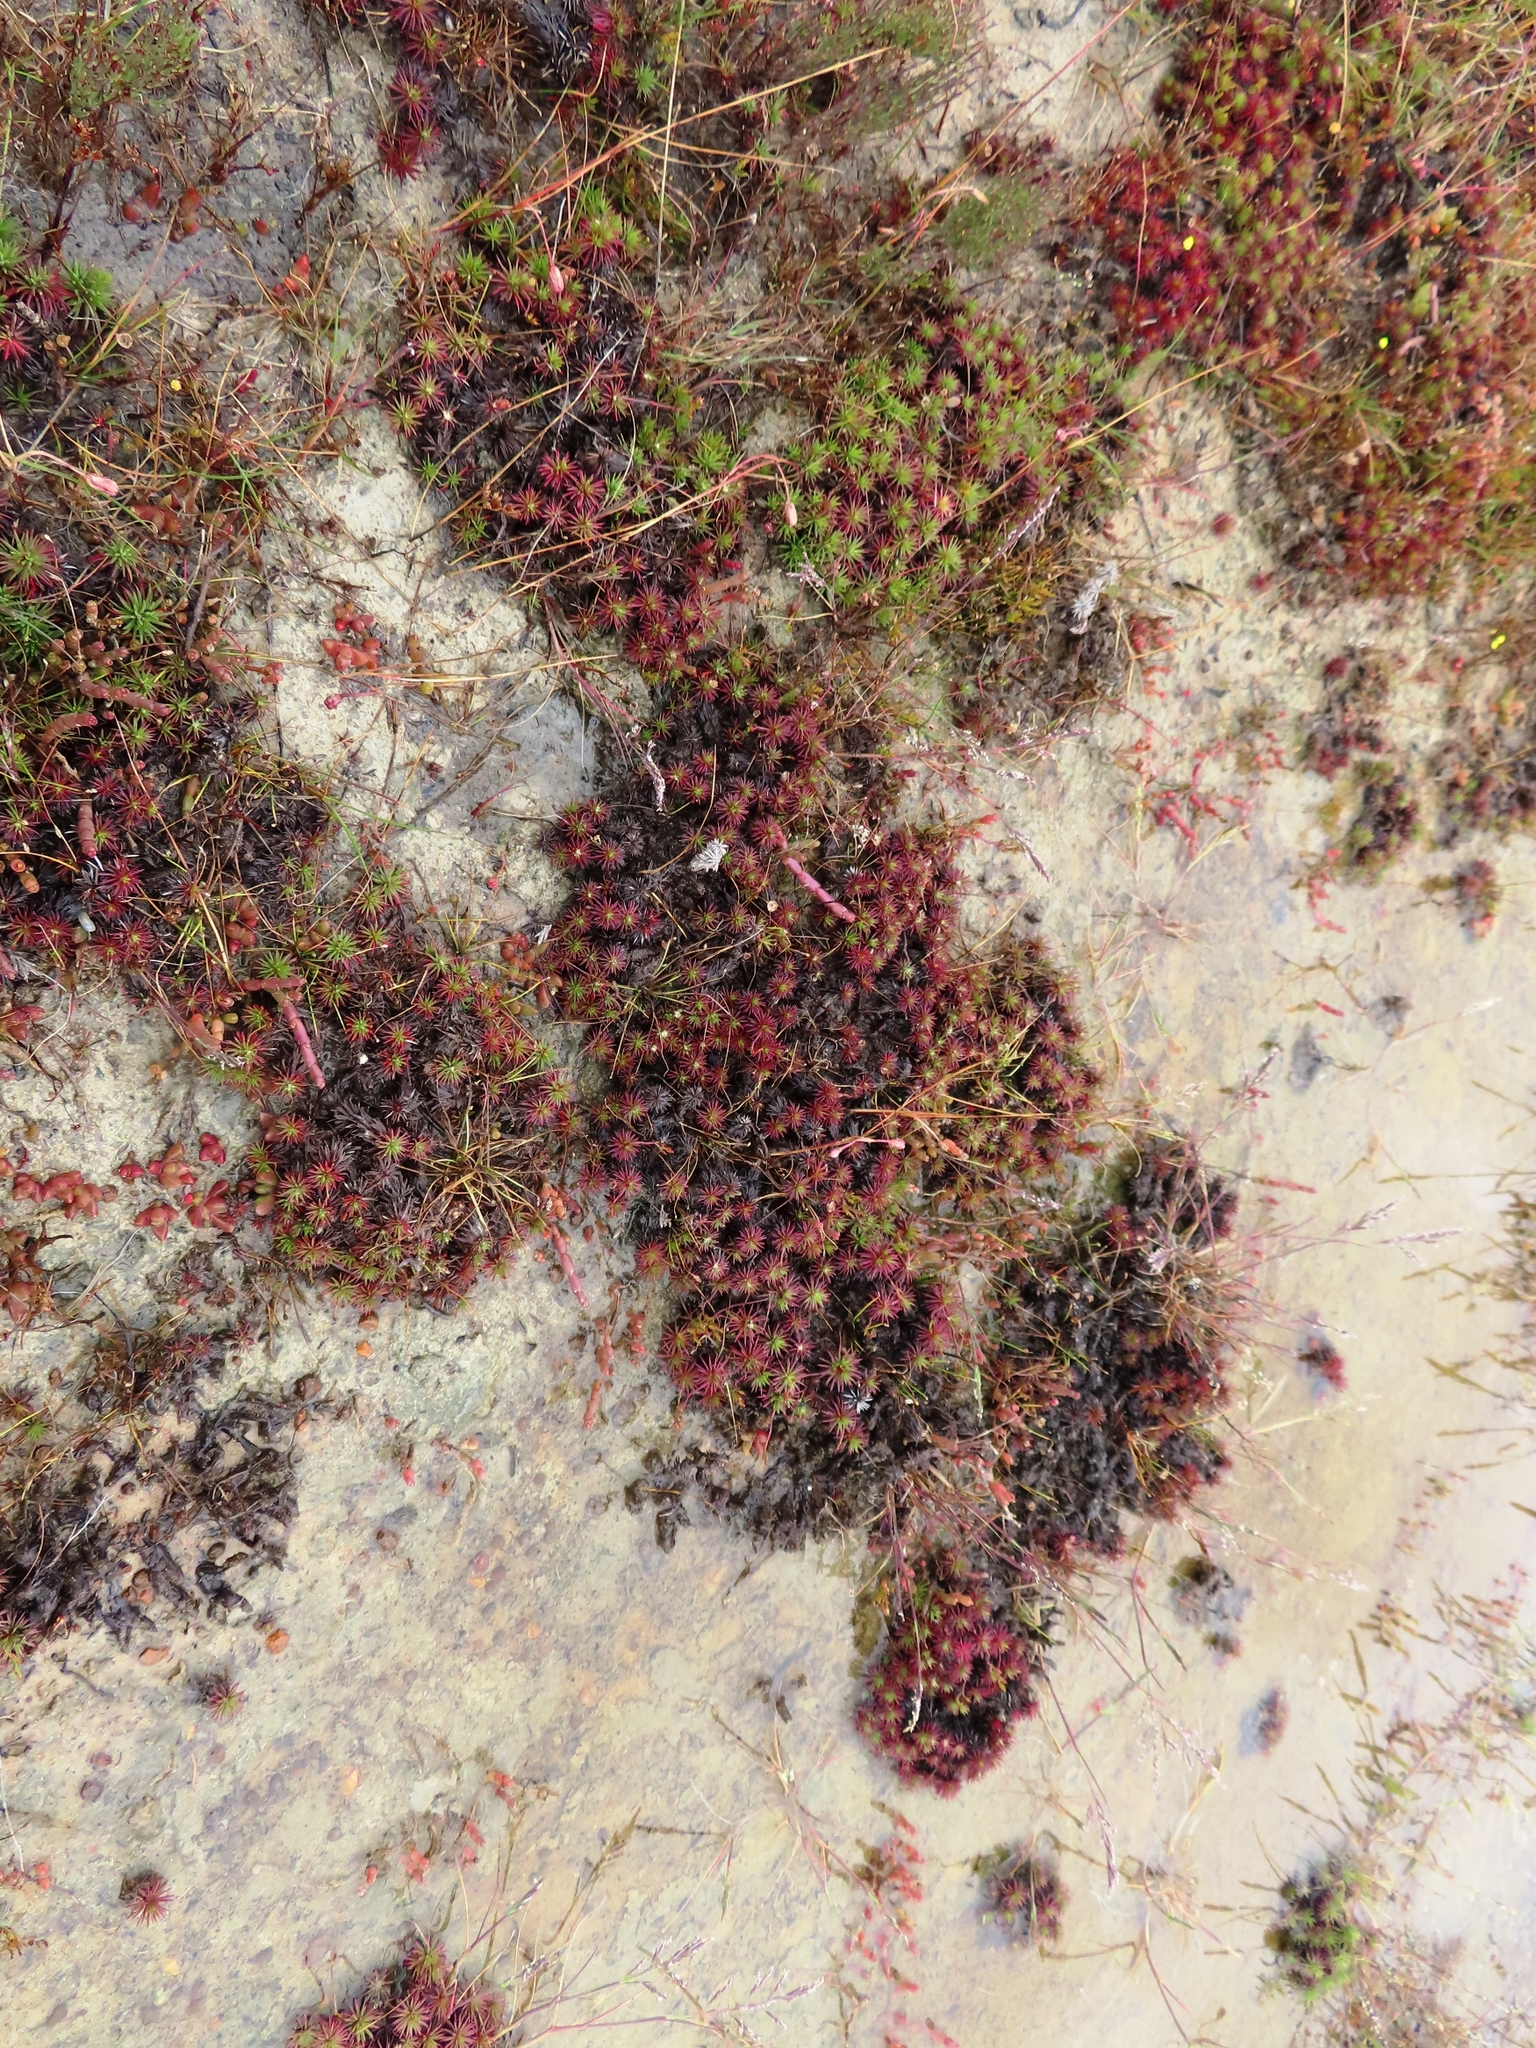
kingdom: Plantae
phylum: Tracheophyta
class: Magnoliopsida
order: Caryophyllales
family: Plumbaginaceae
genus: Limonium
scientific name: Limonium kraussianum
